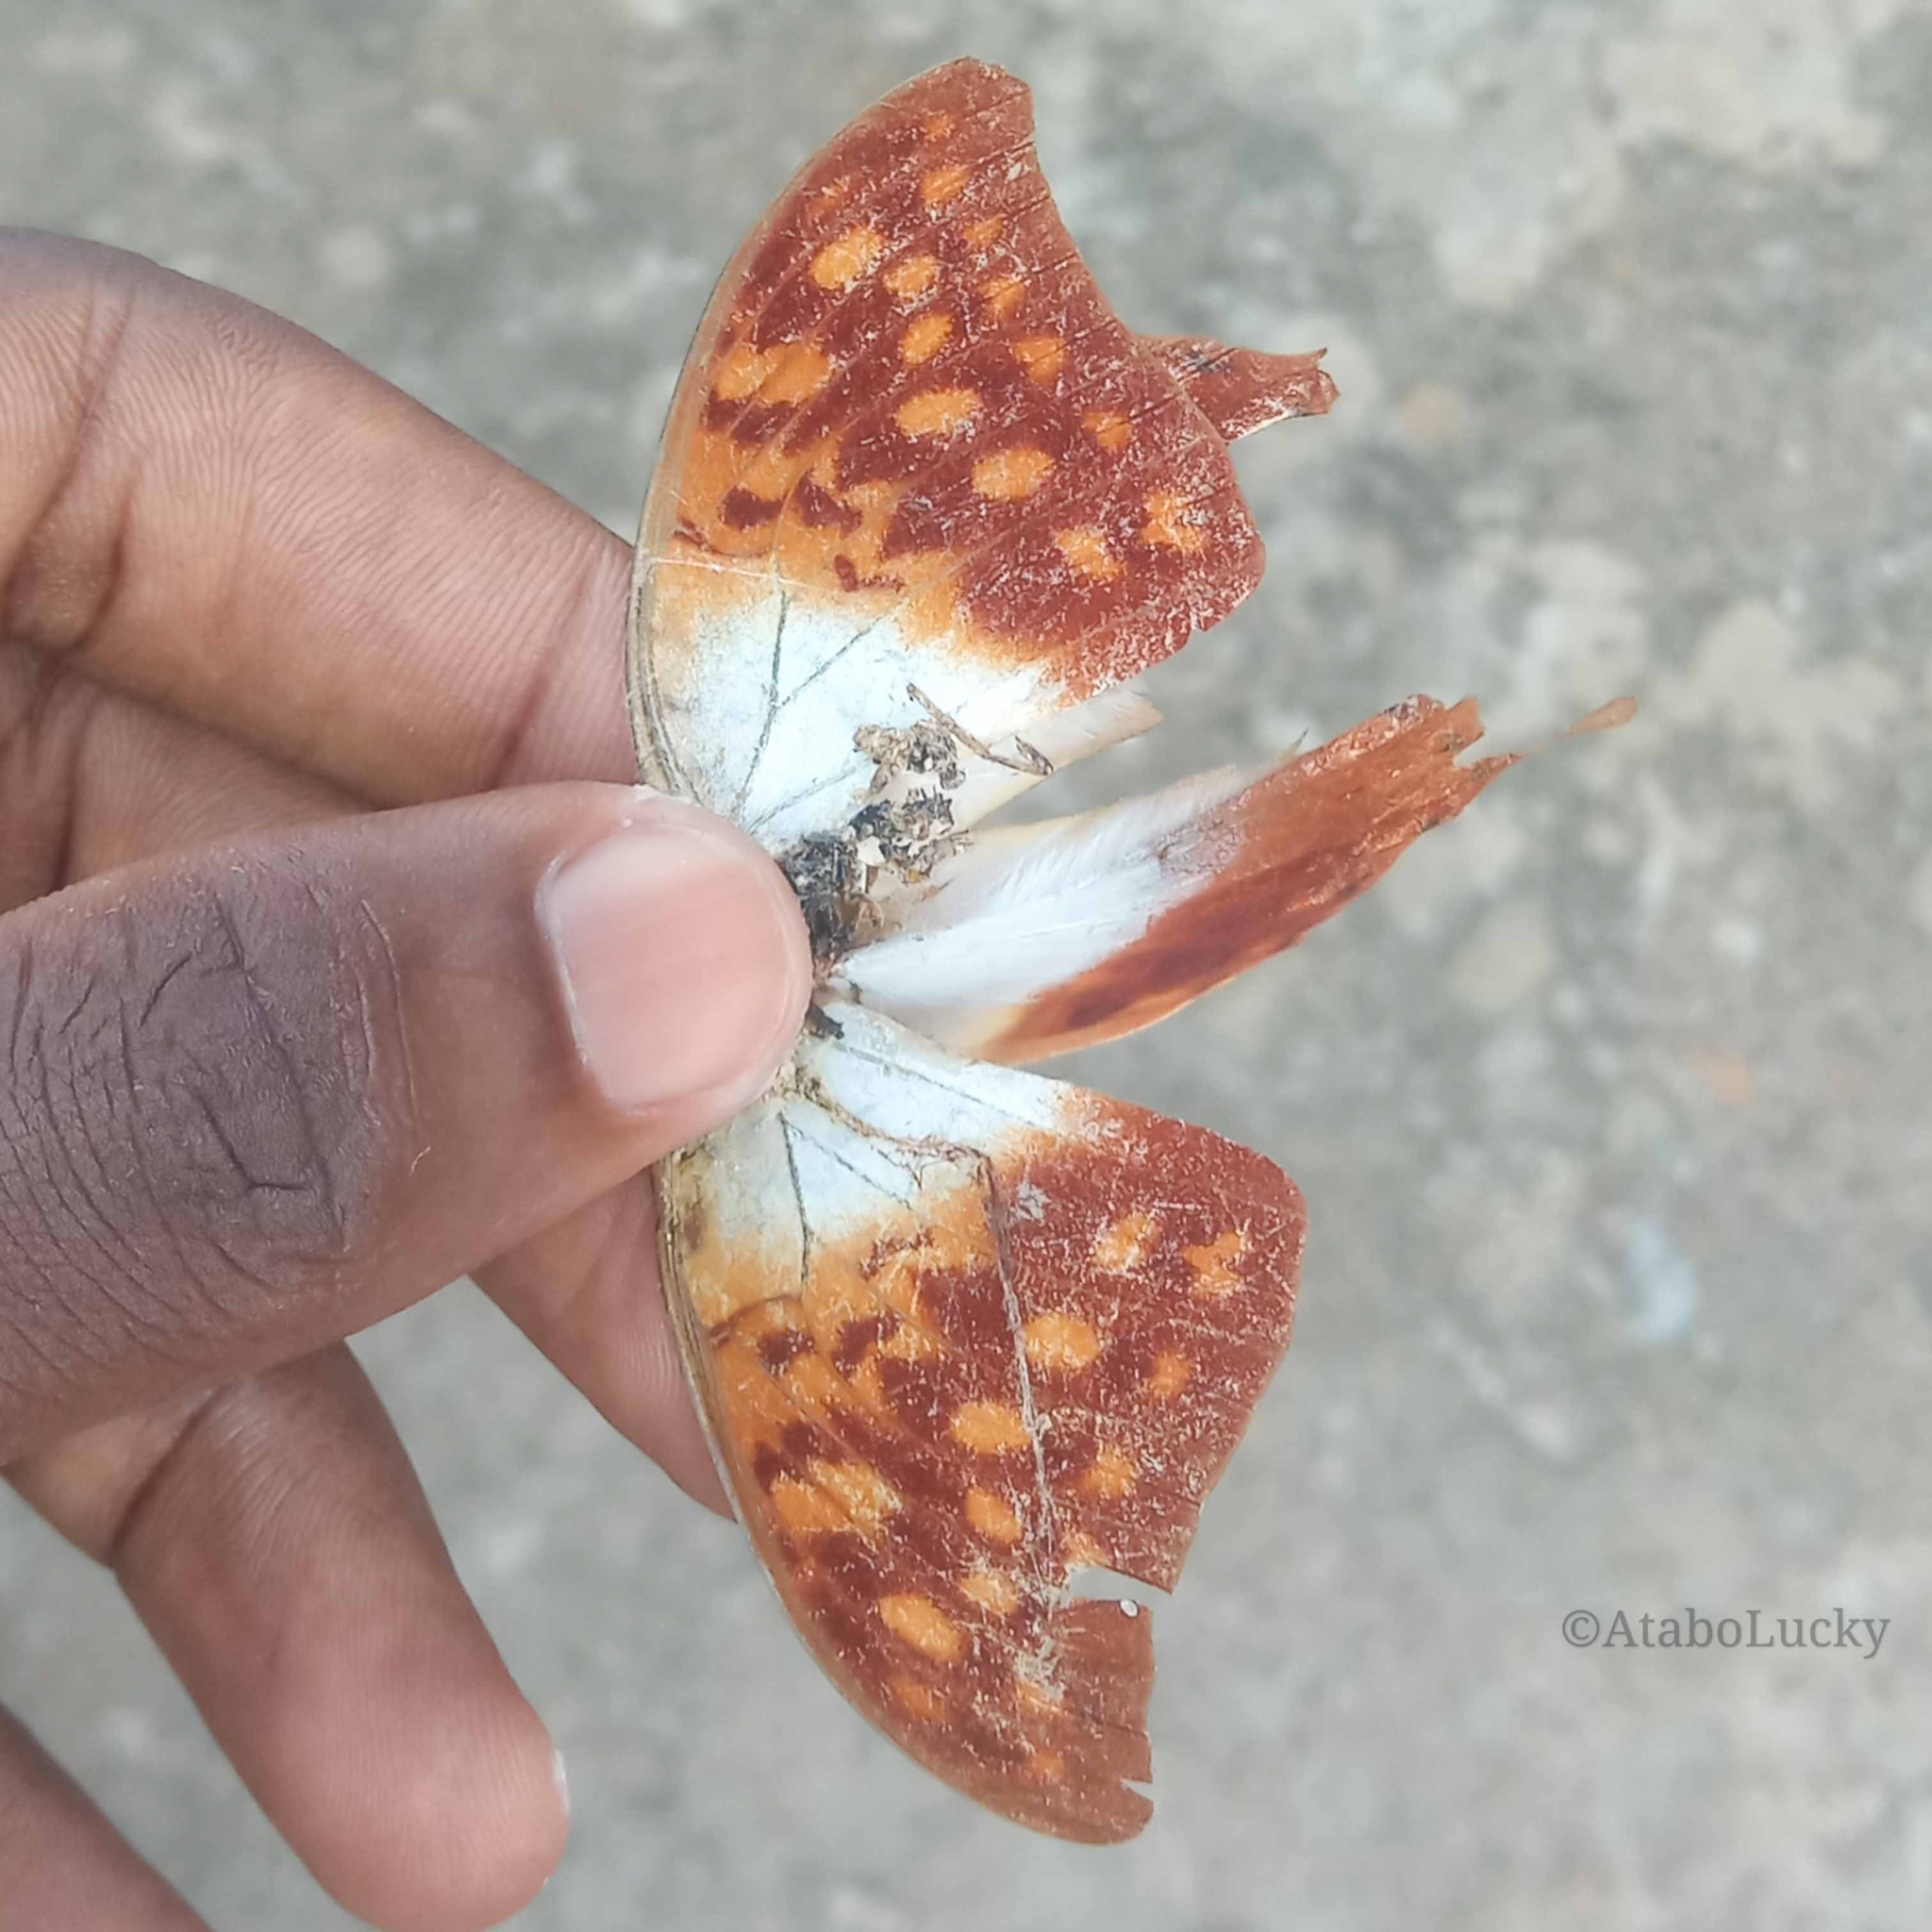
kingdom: Animalia
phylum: Arthropoda
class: Insecta
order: Lepidoptera
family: Nymphalidae
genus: Charaxes
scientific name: Charaxes varanes
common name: Common pearl charaxes
